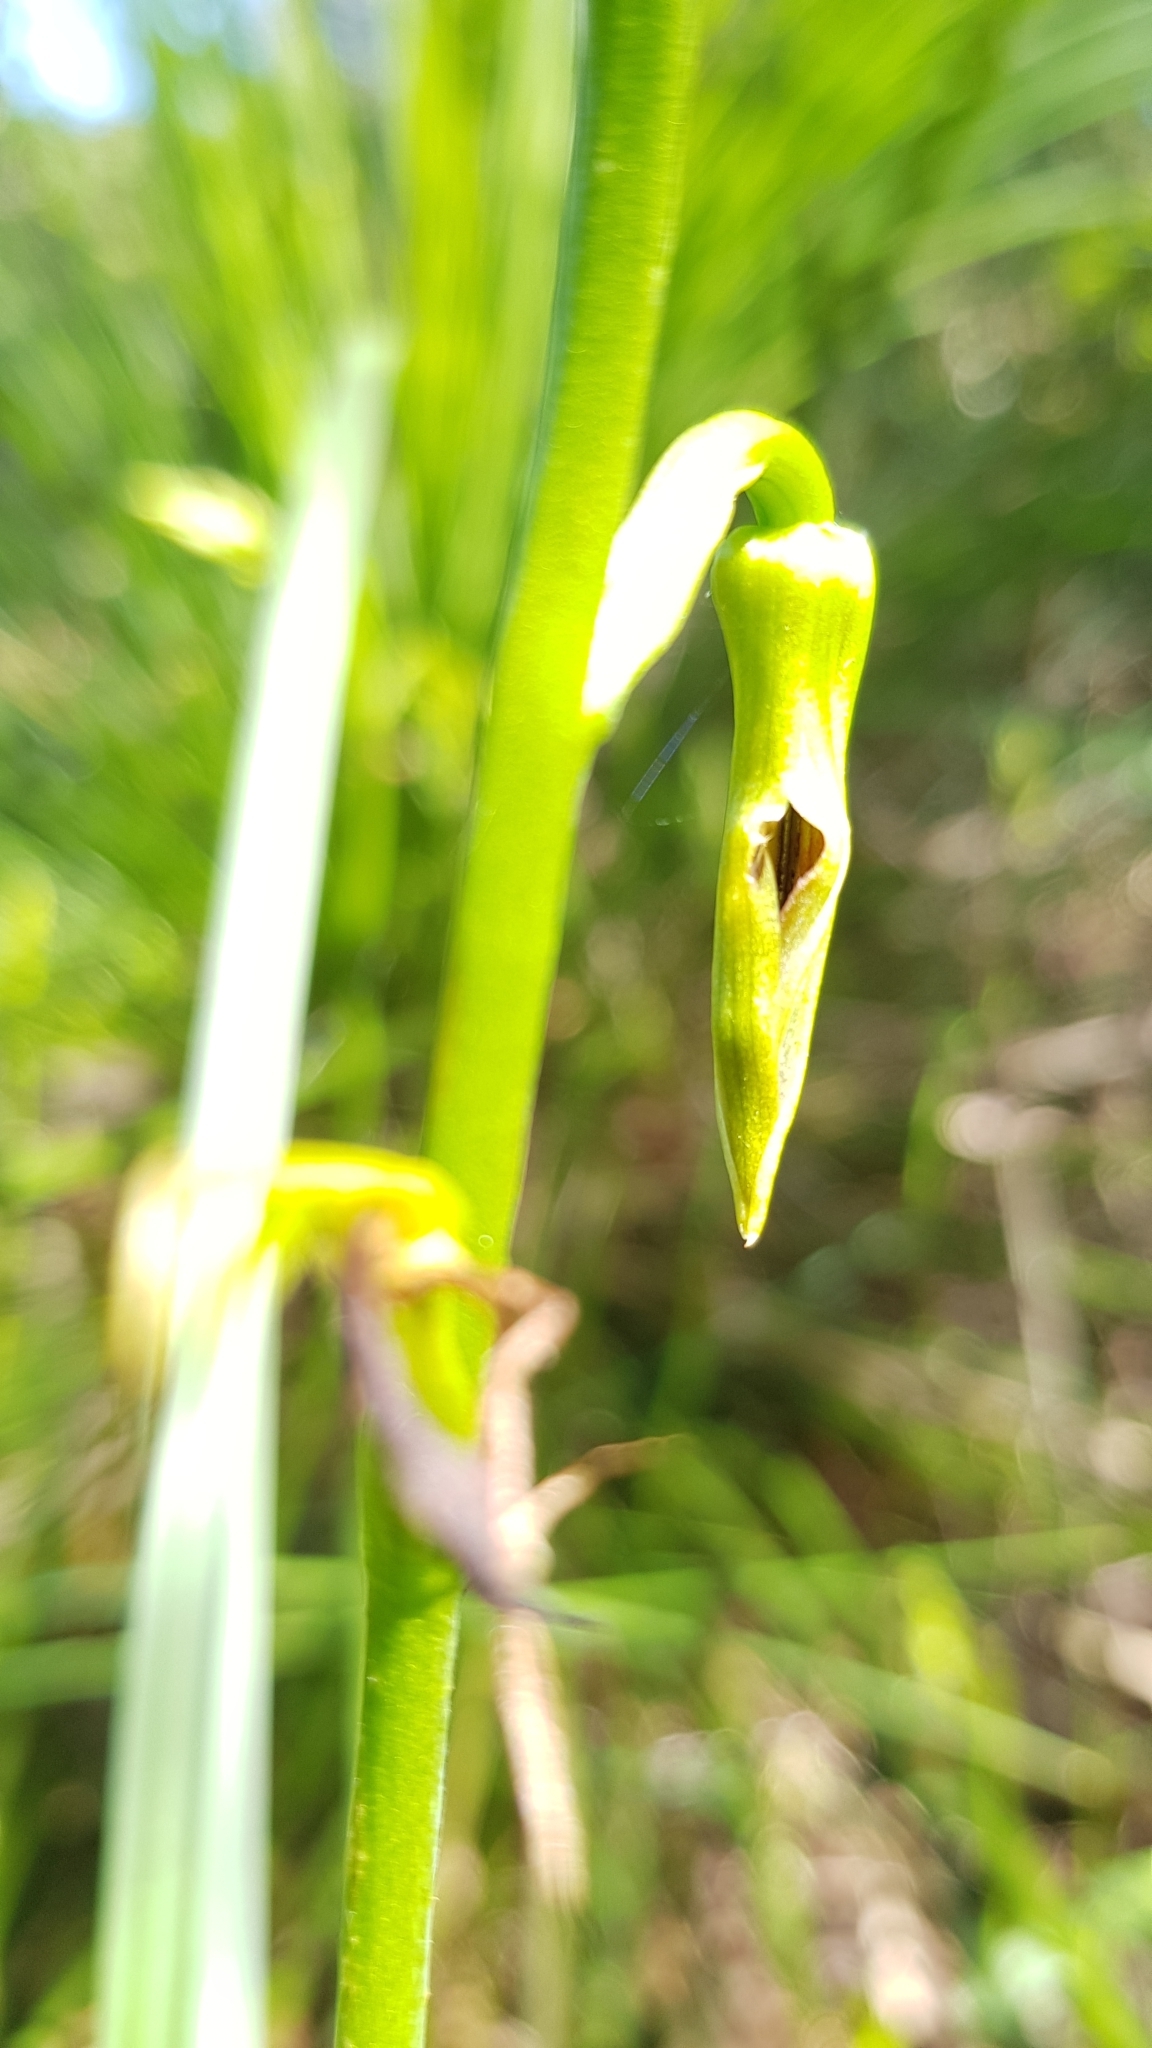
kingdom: Plantae
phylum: Tracheophyta
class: Liliopsida
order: Asparagales
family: Orchidaceae
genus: Cryptostylis
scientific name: Cryptostylis subulata
